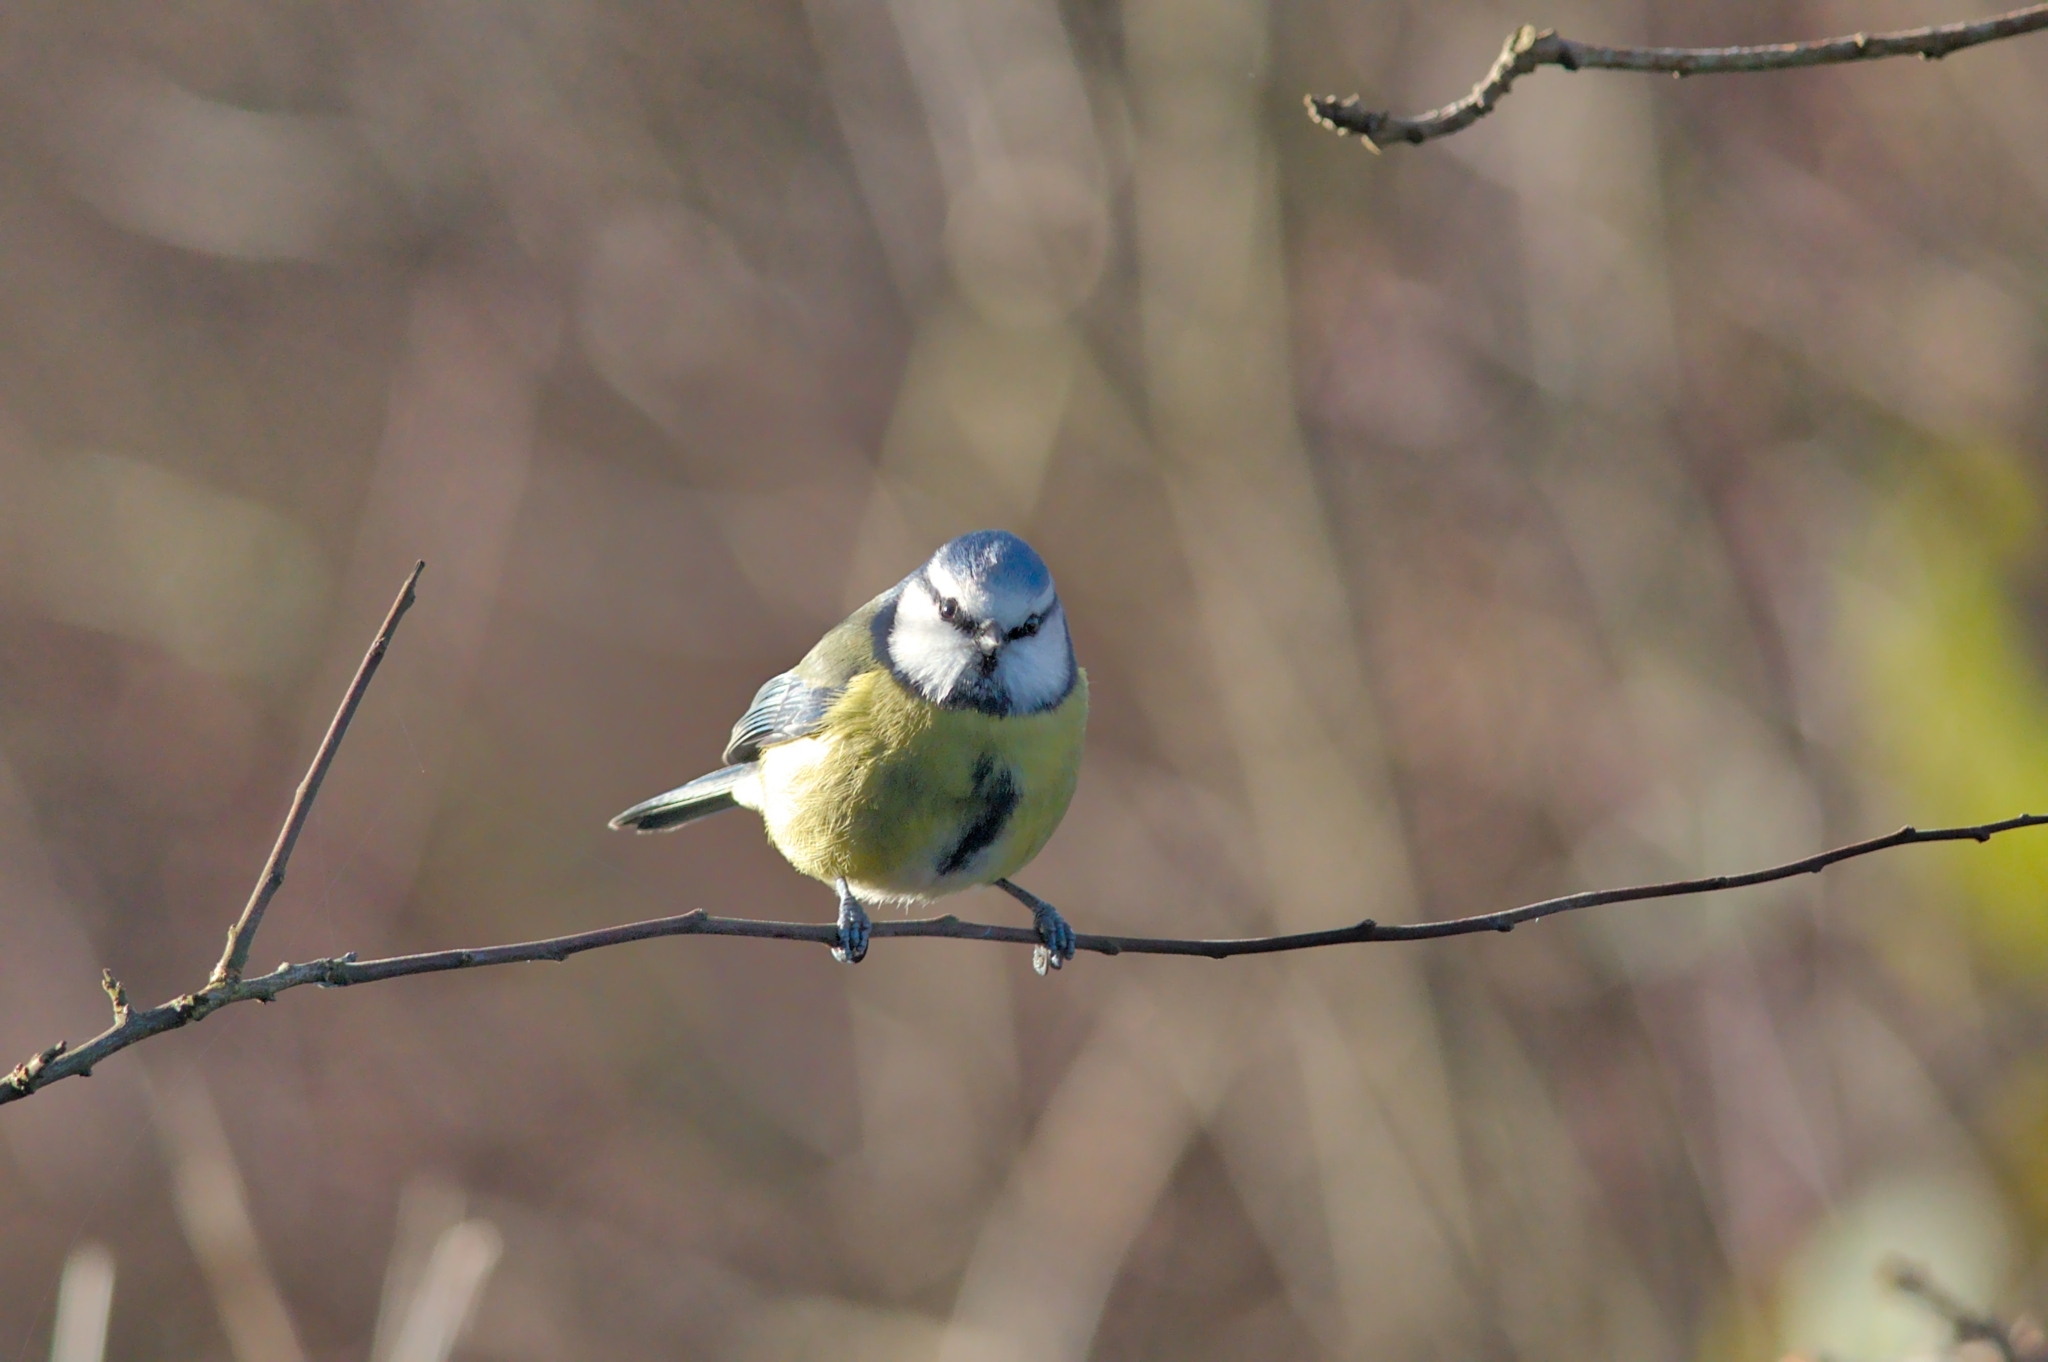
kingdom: Animalia
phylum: Chordata
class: Aves
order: Passeriformes
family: Paridae
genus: Cyanistes
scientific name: Cyanistes caeruleus
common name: Eurasian blue tit
